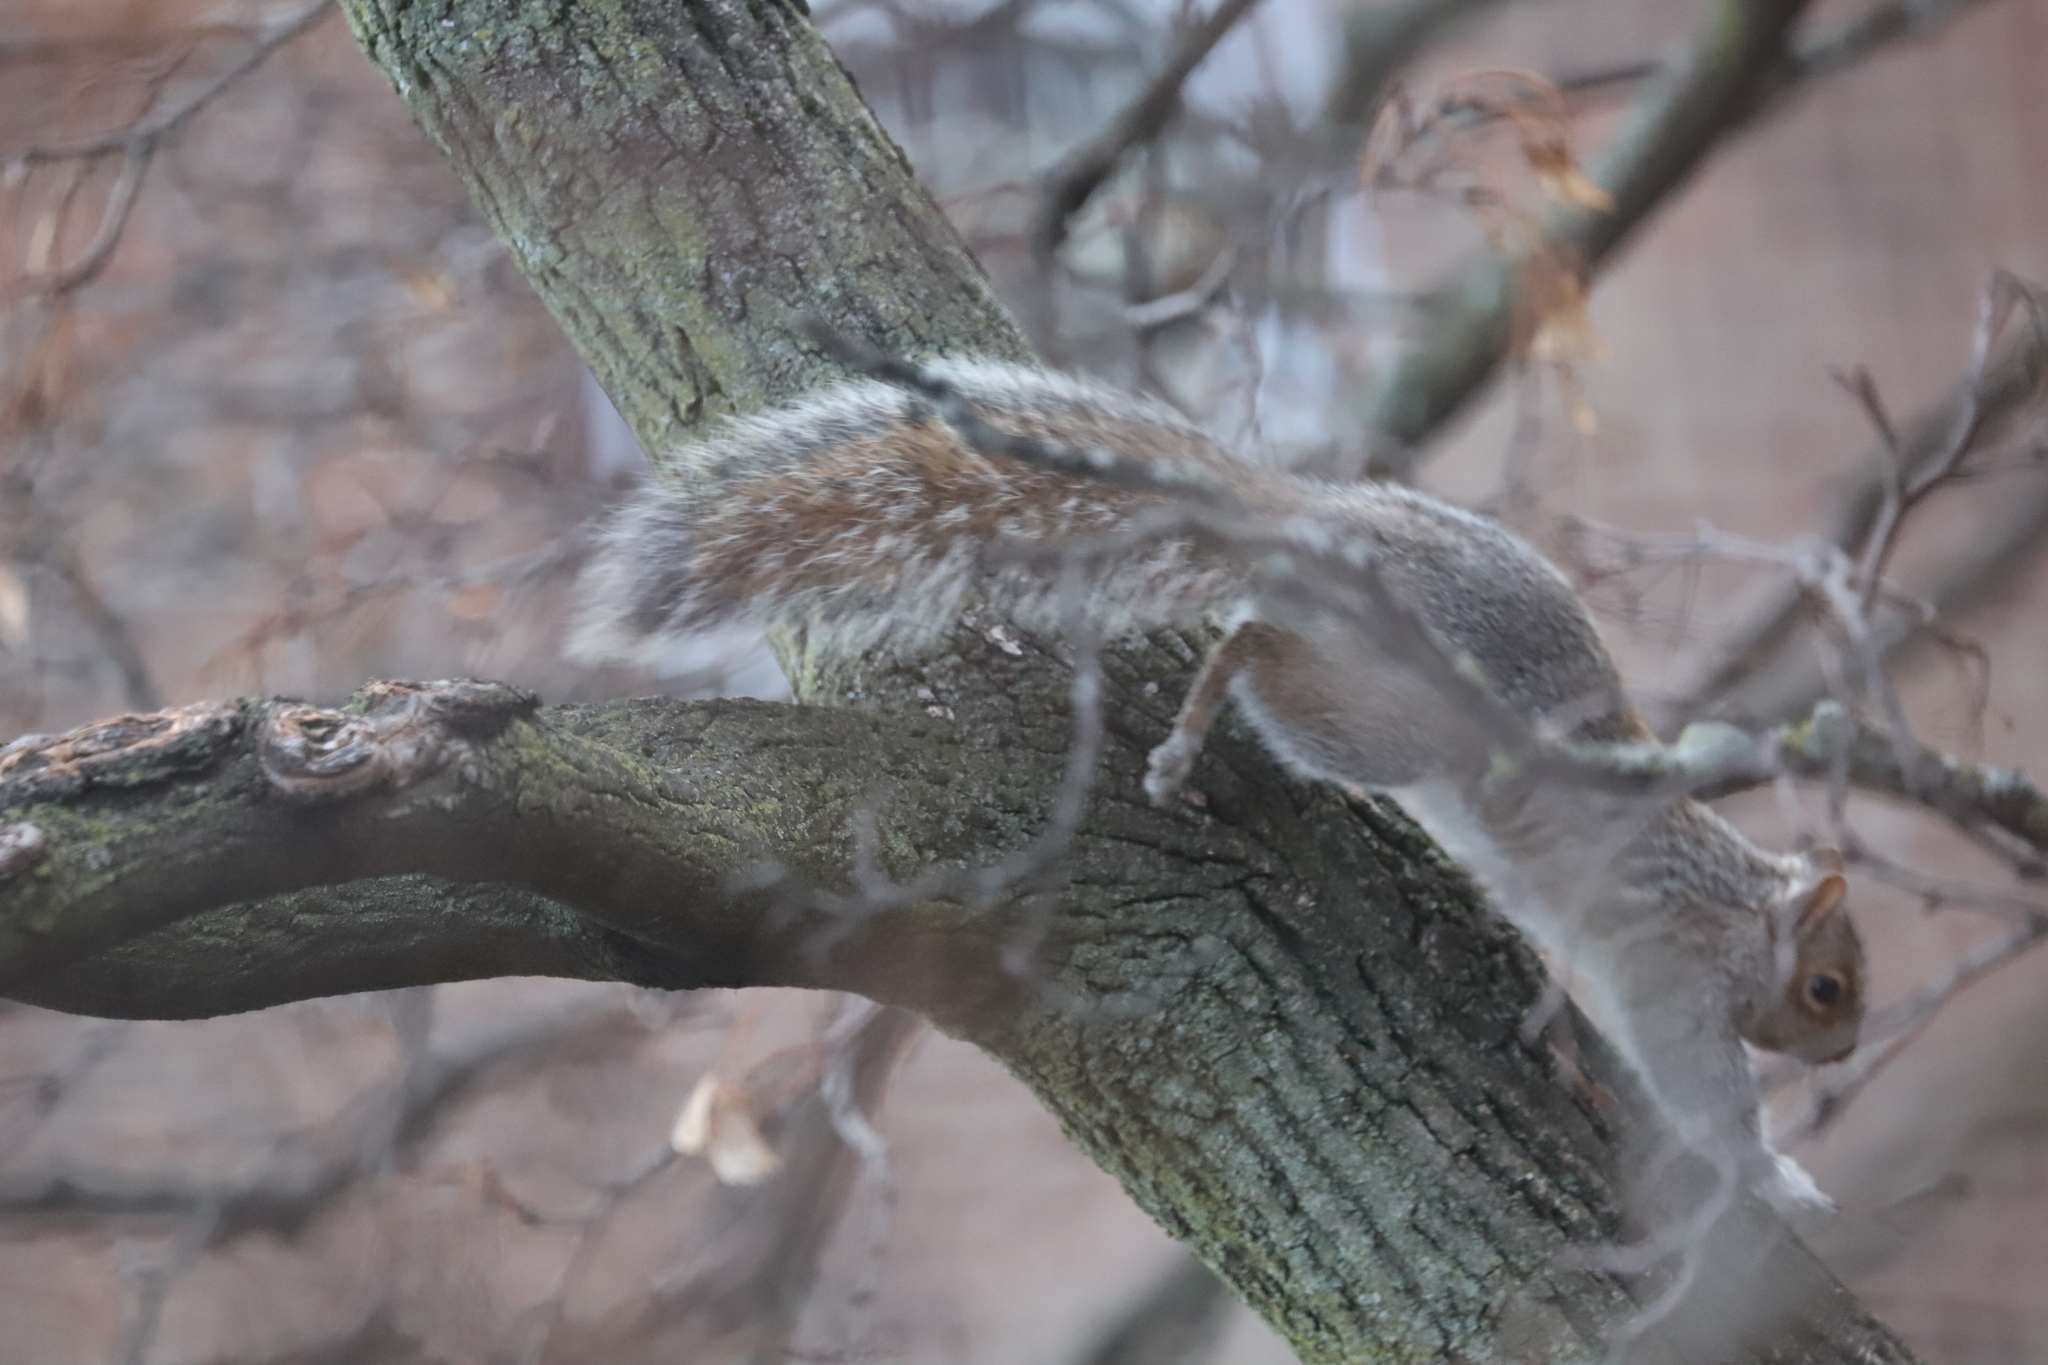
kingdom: Animalia
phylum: Chordata
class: Mammalia
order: Rodentia
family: Sciuridae
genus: Sciurus
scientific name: Sciurus carolinensis
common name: Eastern gray squirrel
